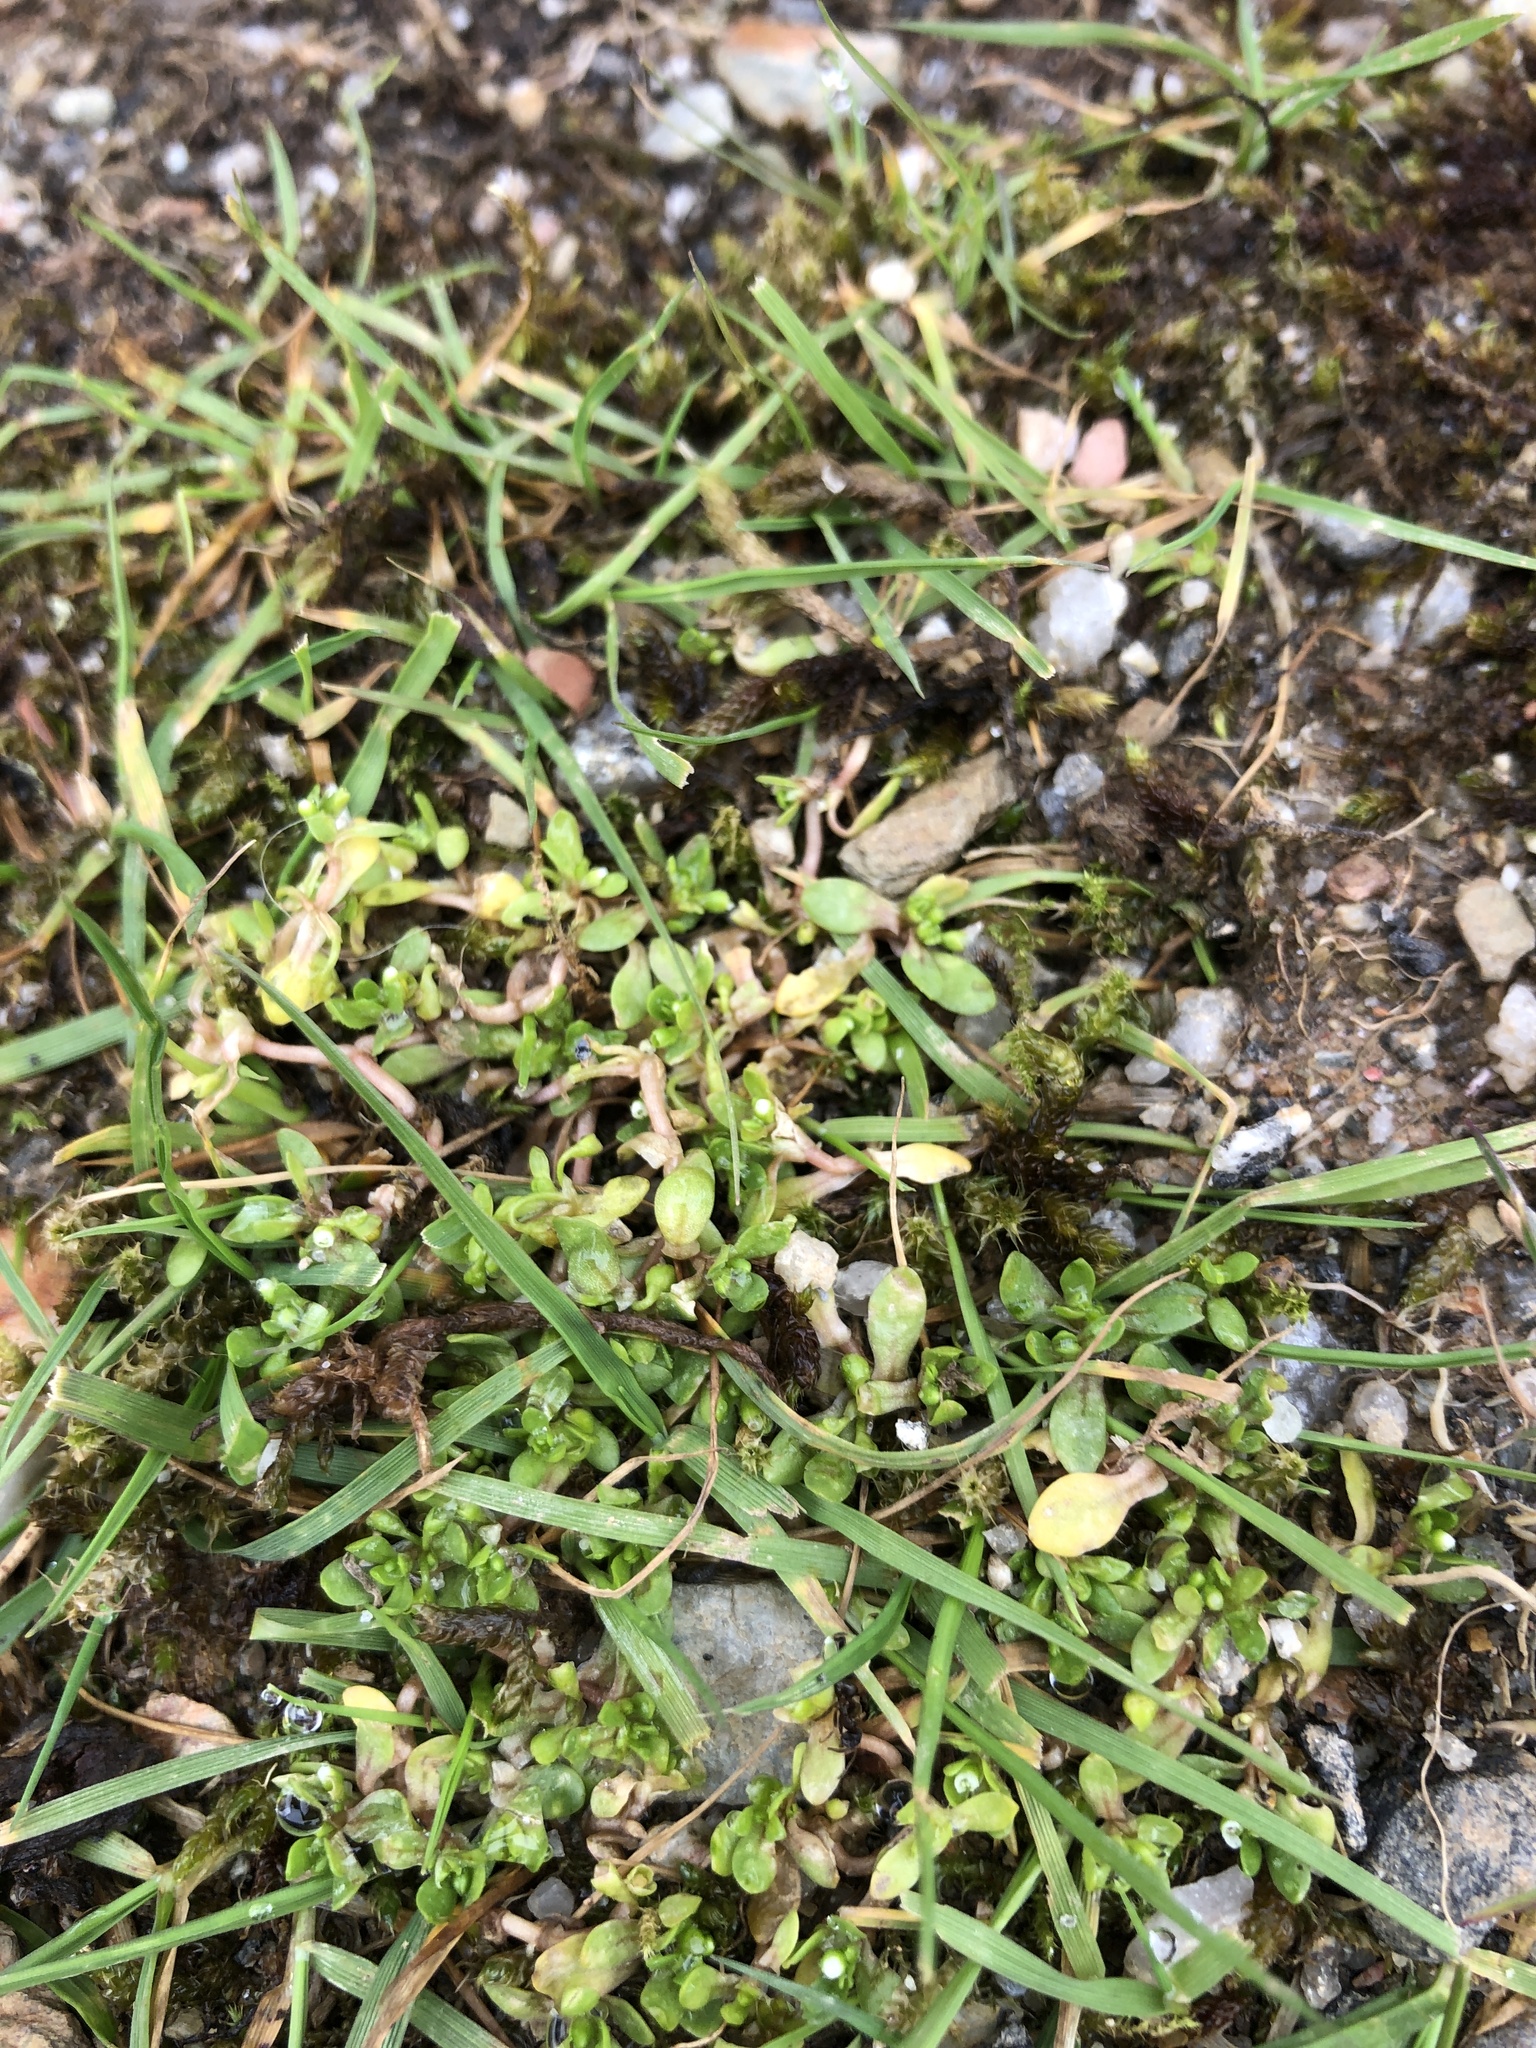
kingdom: Plantae
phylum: Tracheophyta
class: Magnoliopsida
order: Caryophyllales
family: Montiaceae
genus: Montia
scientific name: Montia fontana
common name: Blinks
